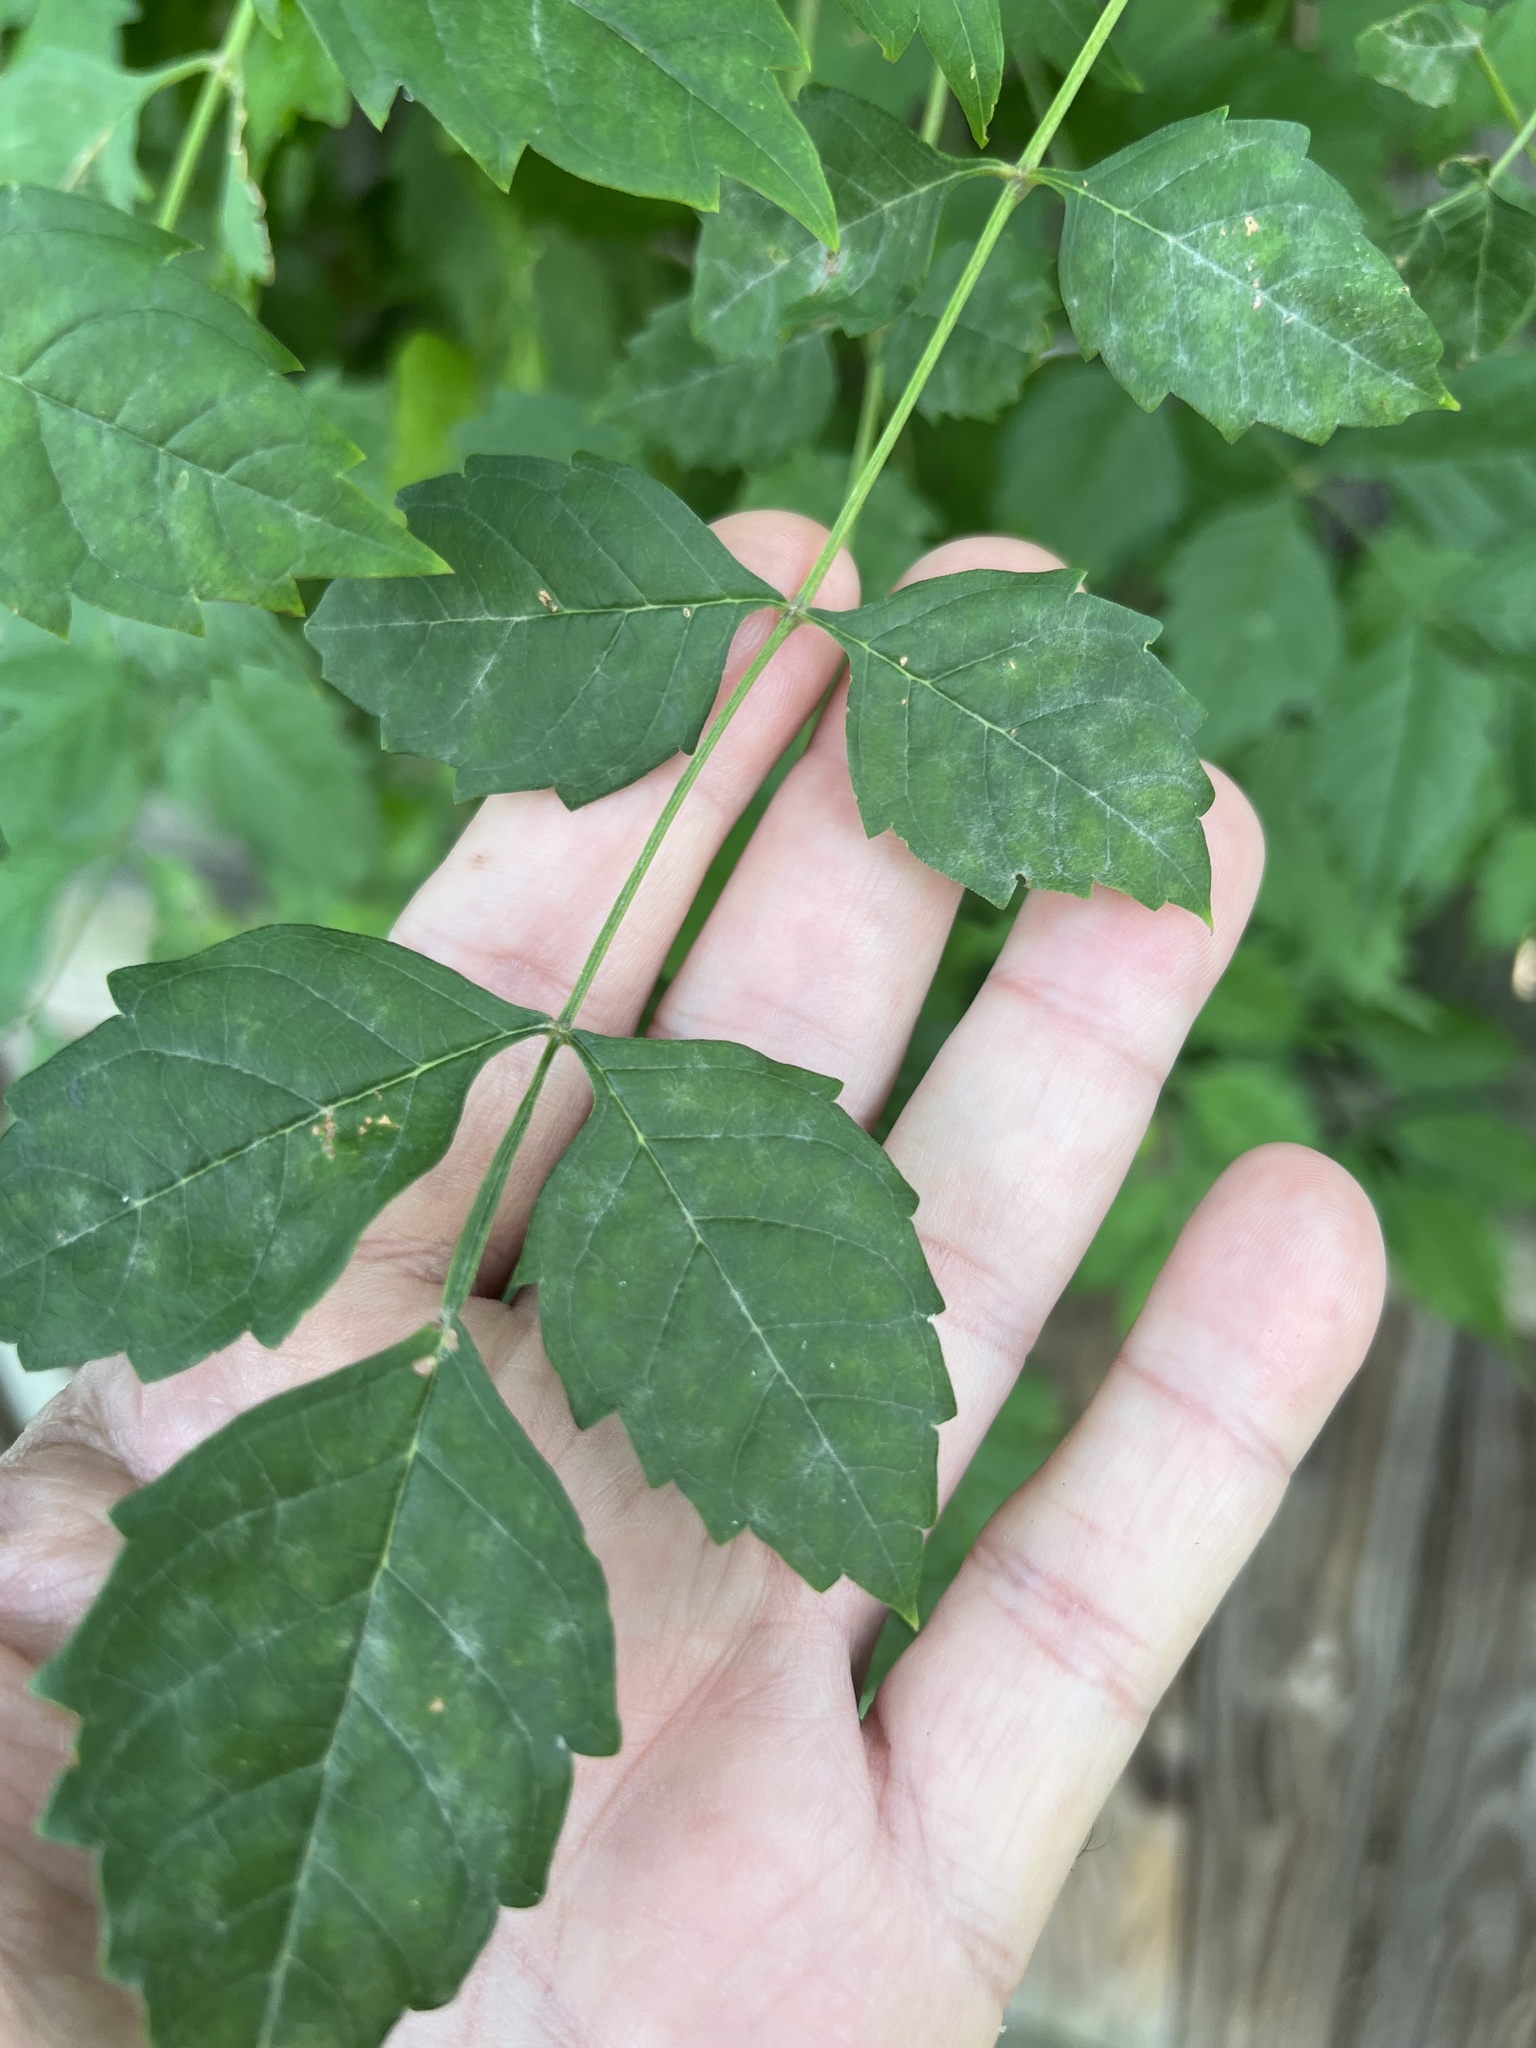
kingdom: Animalia
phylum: Arthropoda
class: Insecta
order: Lepidoptera
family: Sphingidae
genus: Paratrea
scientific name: Paratrea plebeja
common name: Plebian sphinx
